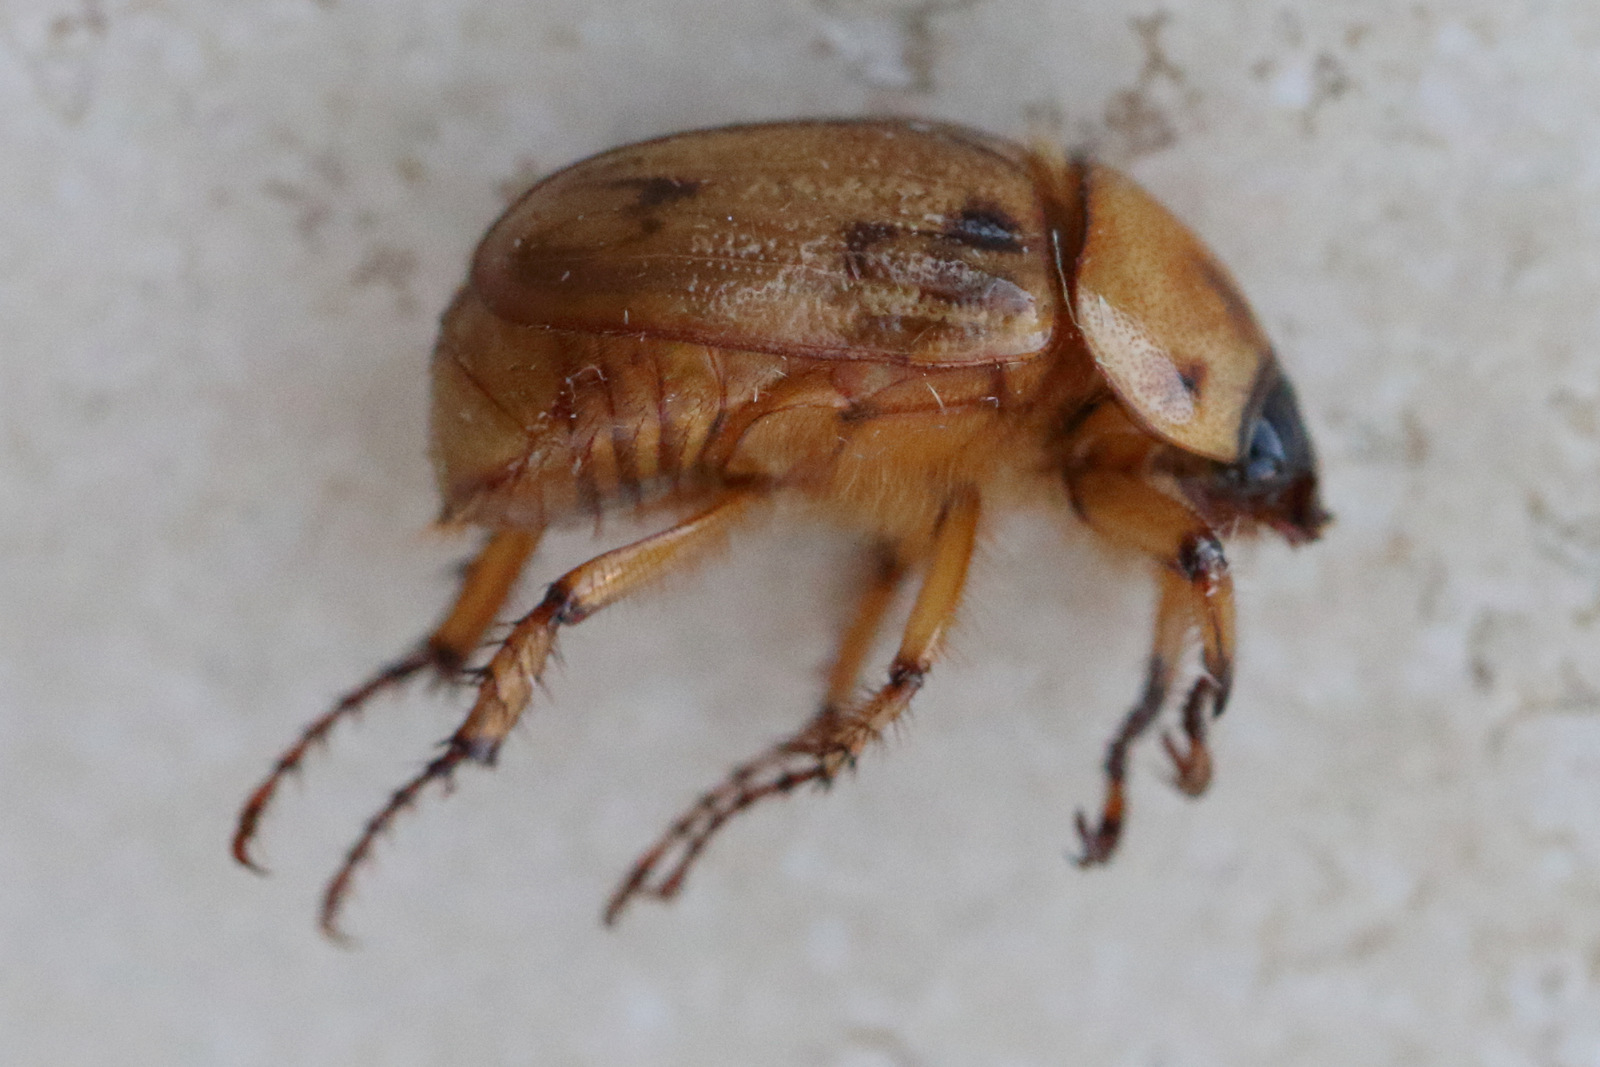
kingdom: Animalia
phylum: Arthropoda
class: Insecta
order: Coleoptera
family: Scarabaeidae
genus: Cyclocephala
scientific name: Cyclocephala signaticollis
